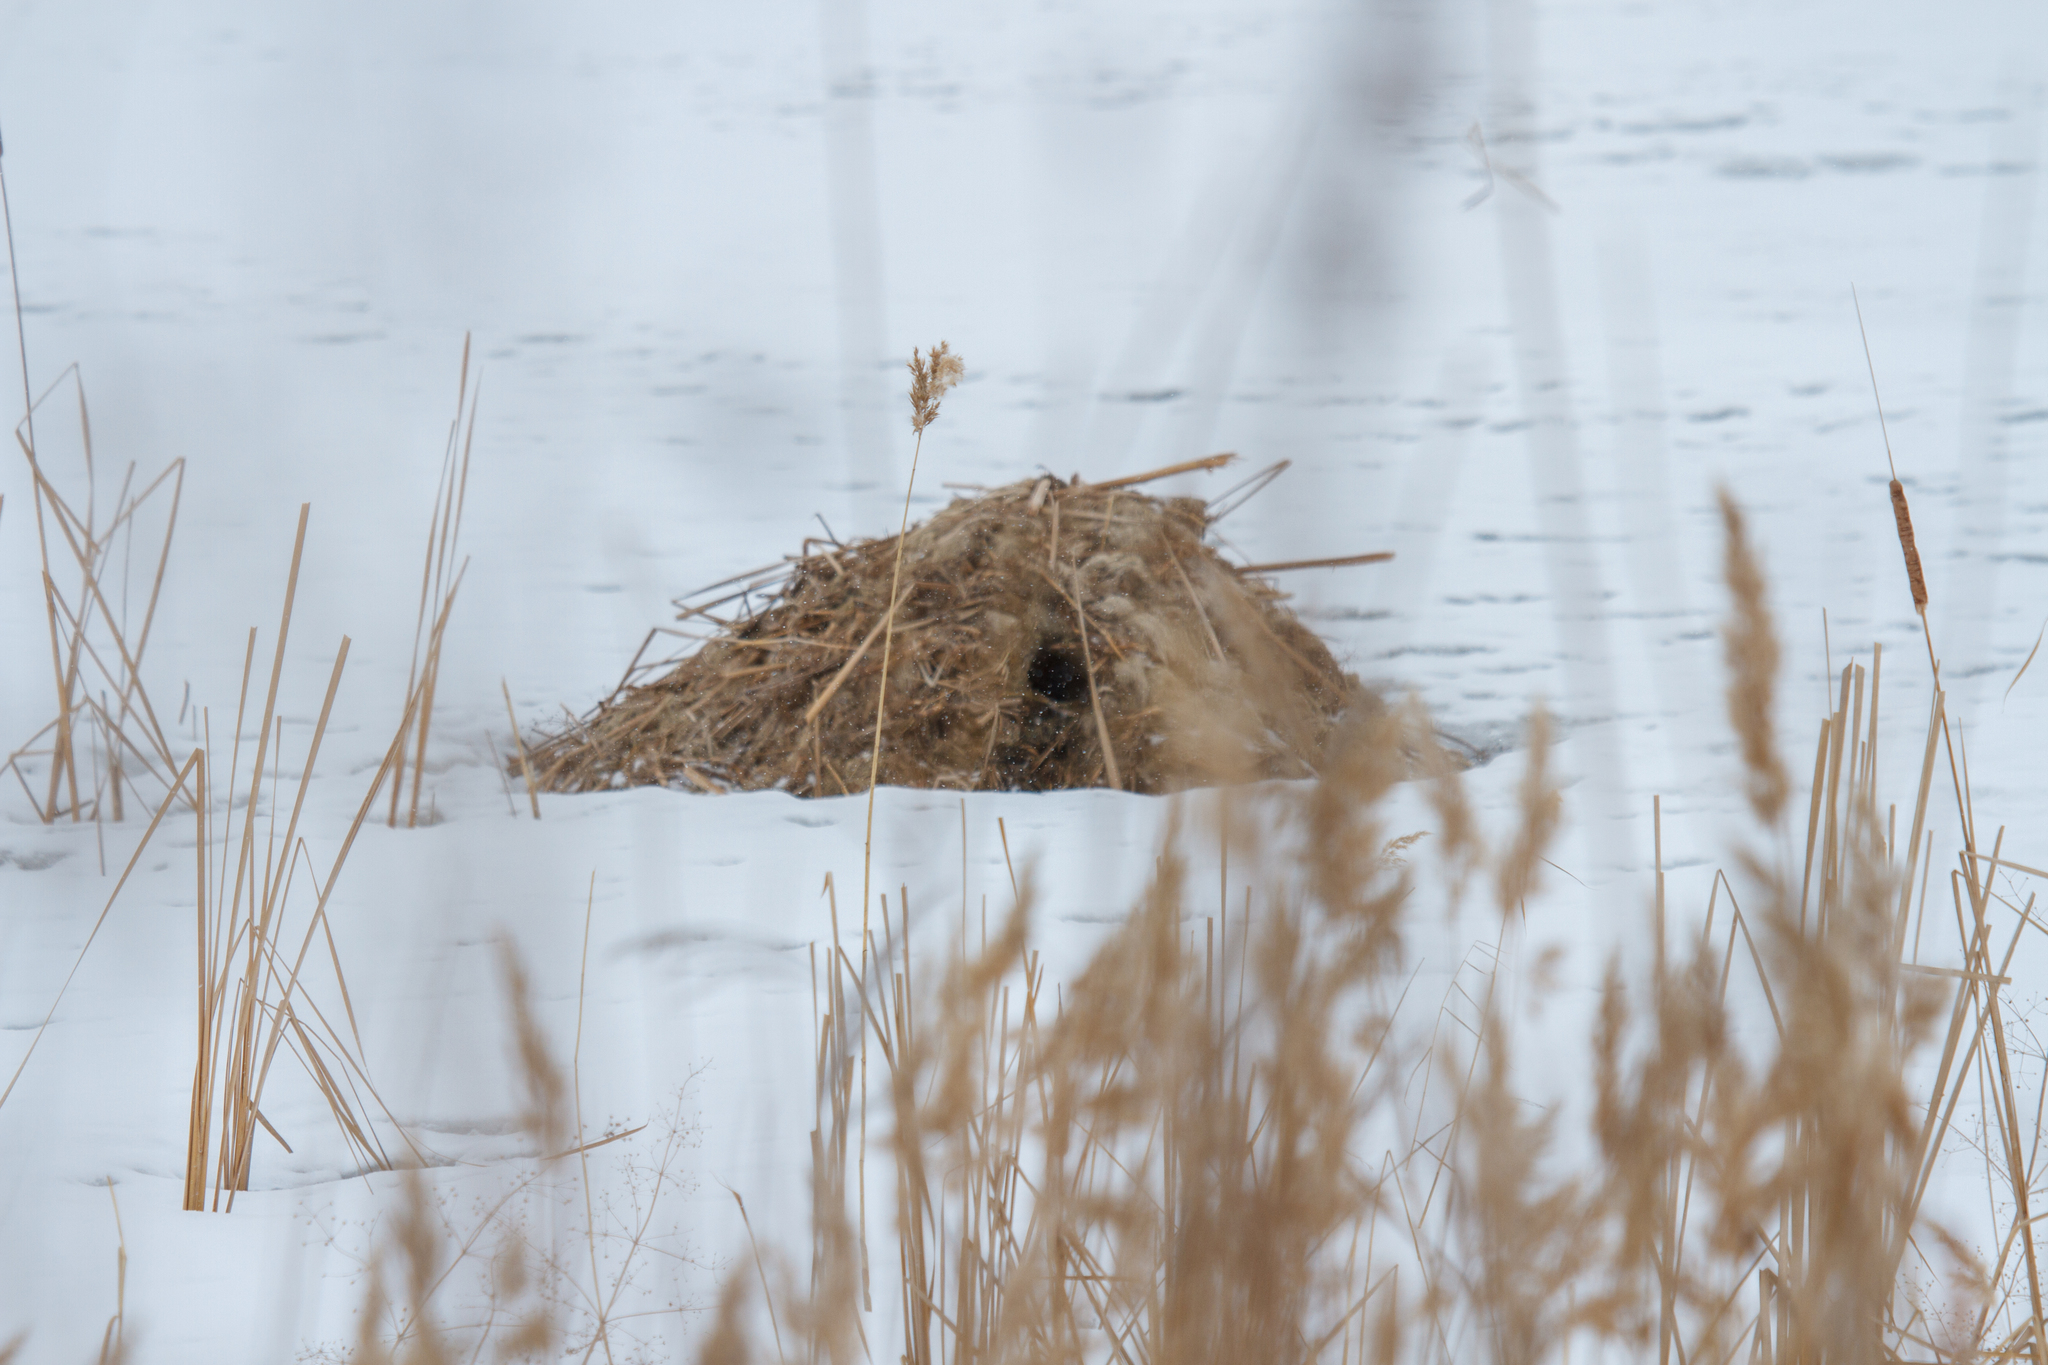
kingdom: Animalia
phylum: Chordata
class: Mammalia
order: Rodentia
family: Cricetidae
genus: Ondatra
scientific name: Ondatra zibethicus
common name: Muskrat
